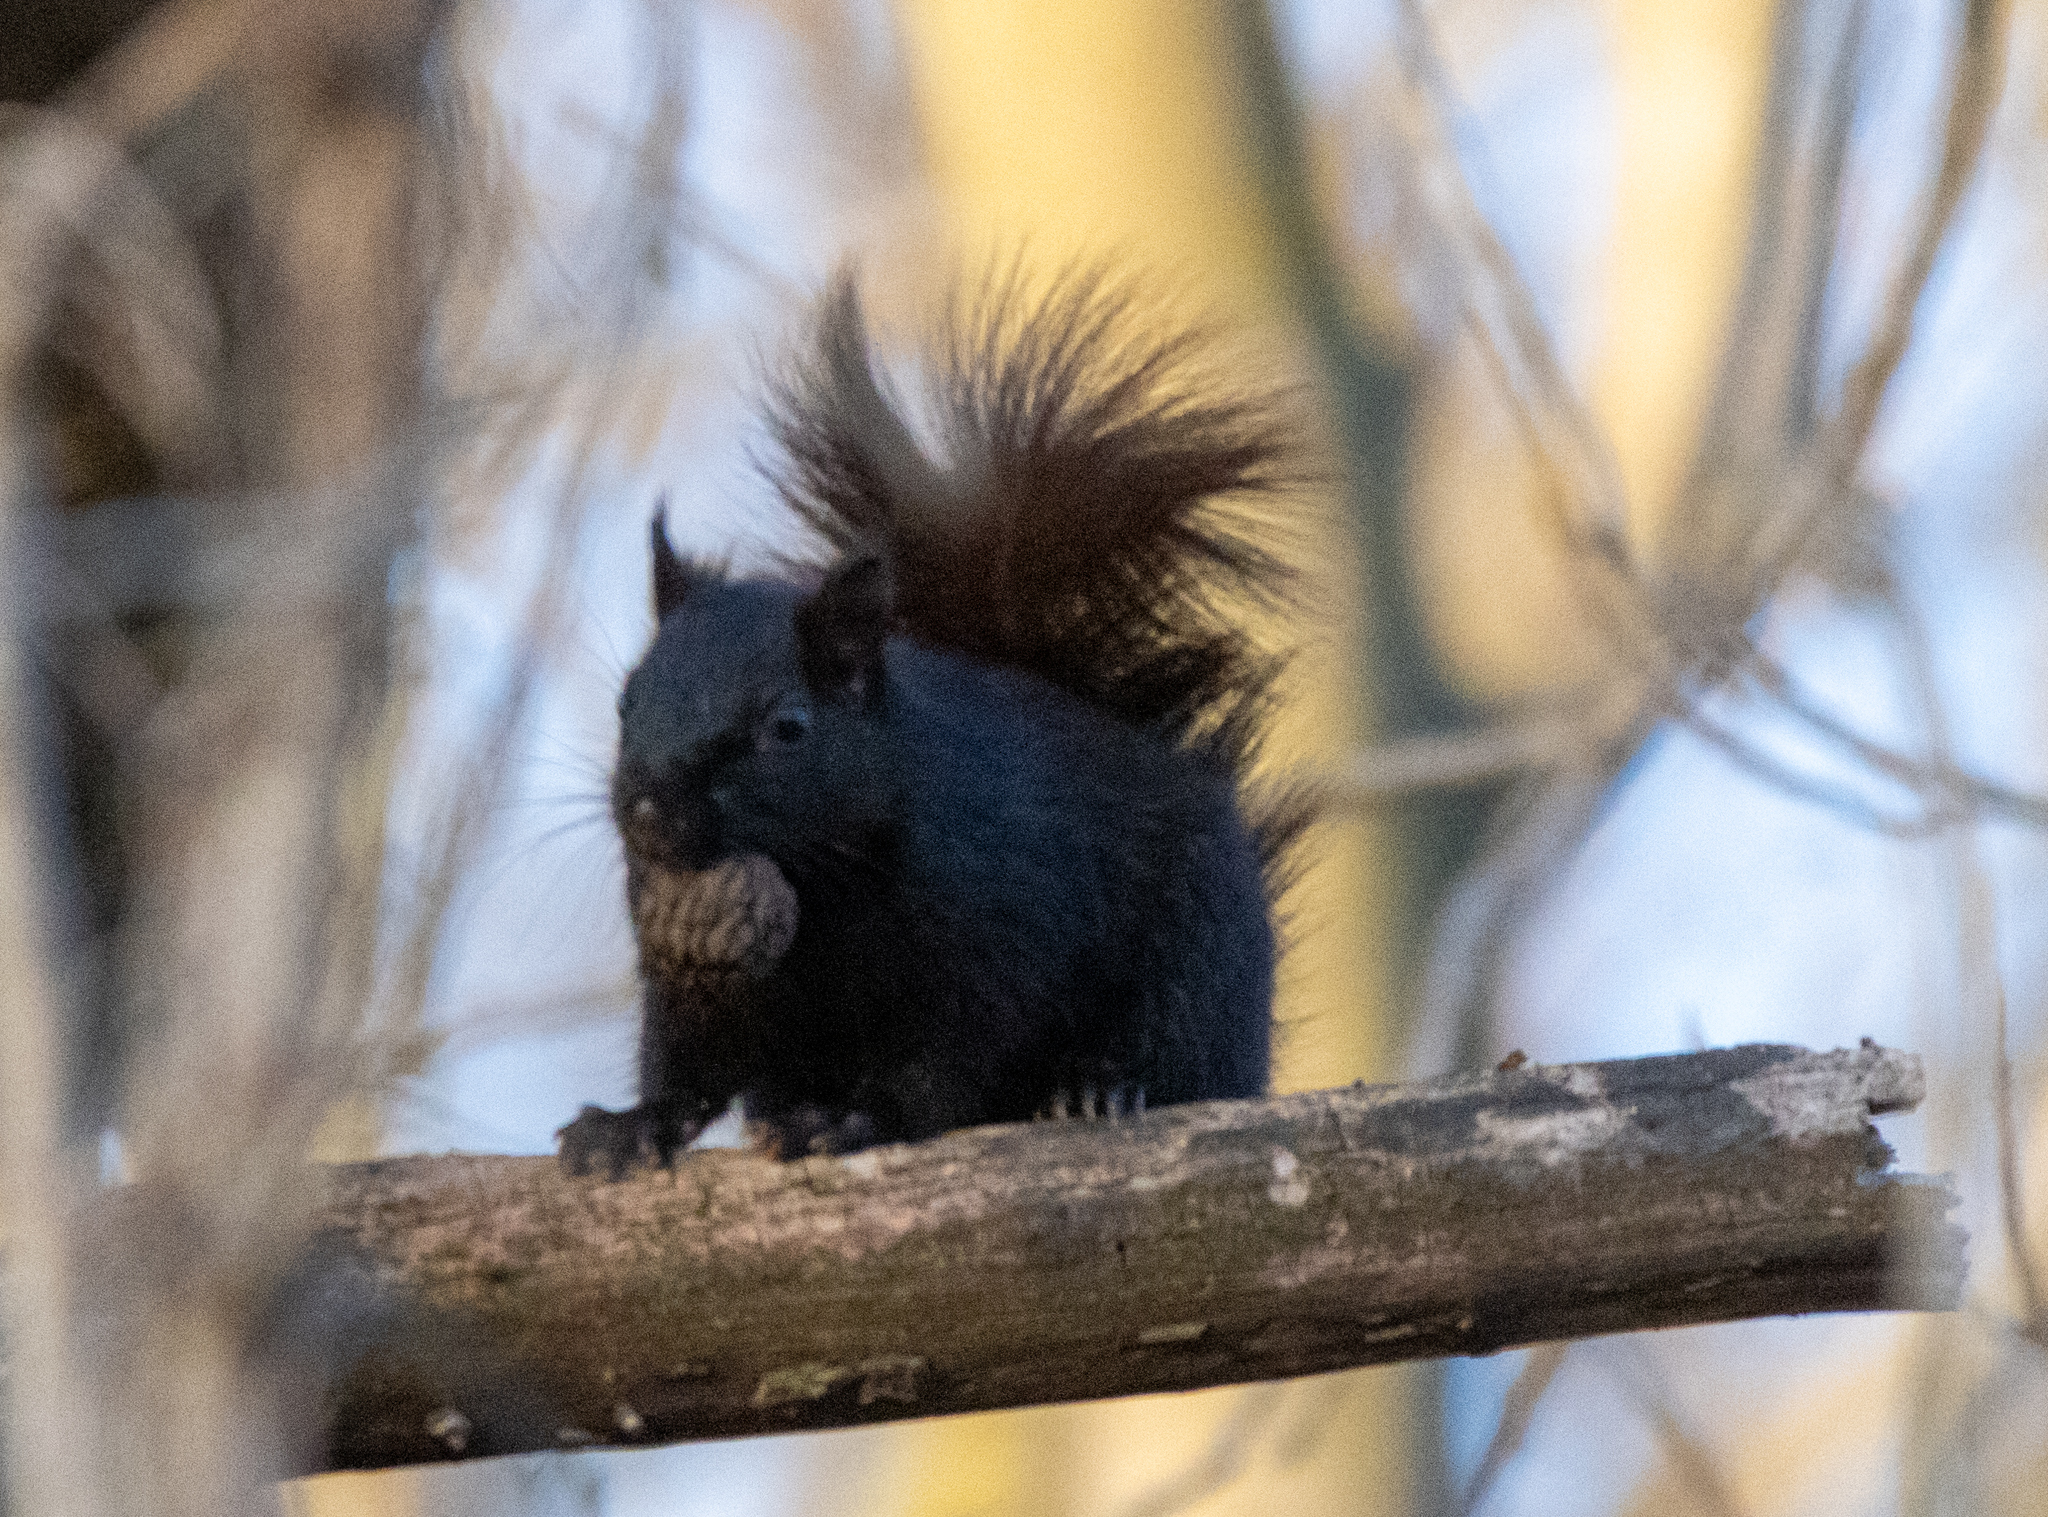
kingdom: Animalia
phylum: Chordata
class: Mammalia
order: Rodentia
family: Sciuridae
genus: Sciurus
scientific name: Sciurus carolinensis
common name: Eastern gray squirrel
